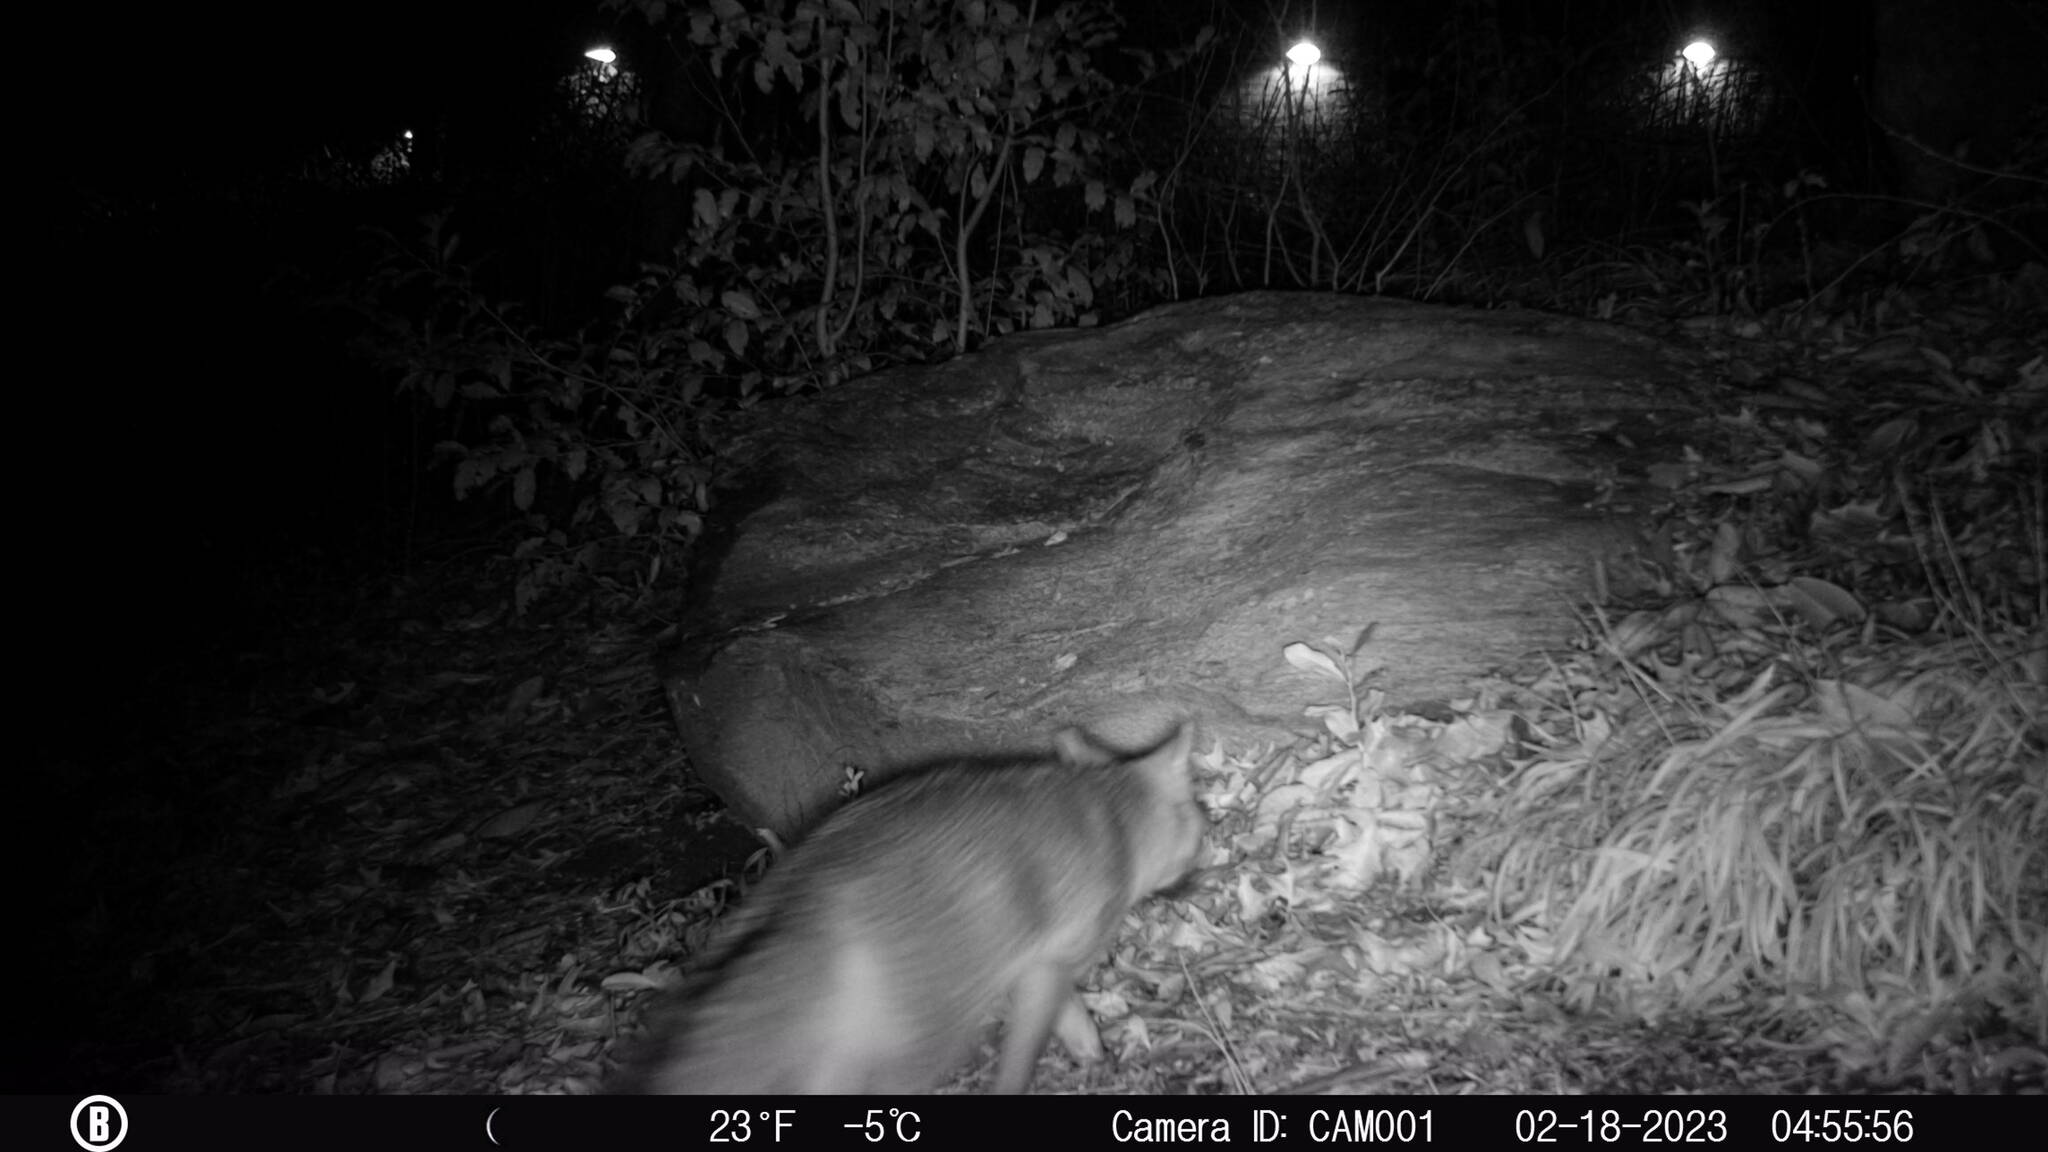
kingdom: Animalia
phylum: Chordata
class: Mammalia
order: Carnivora
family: Canidae
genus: Urocyon
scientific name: Urocyon cinereoargenteus
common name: Gray fox
